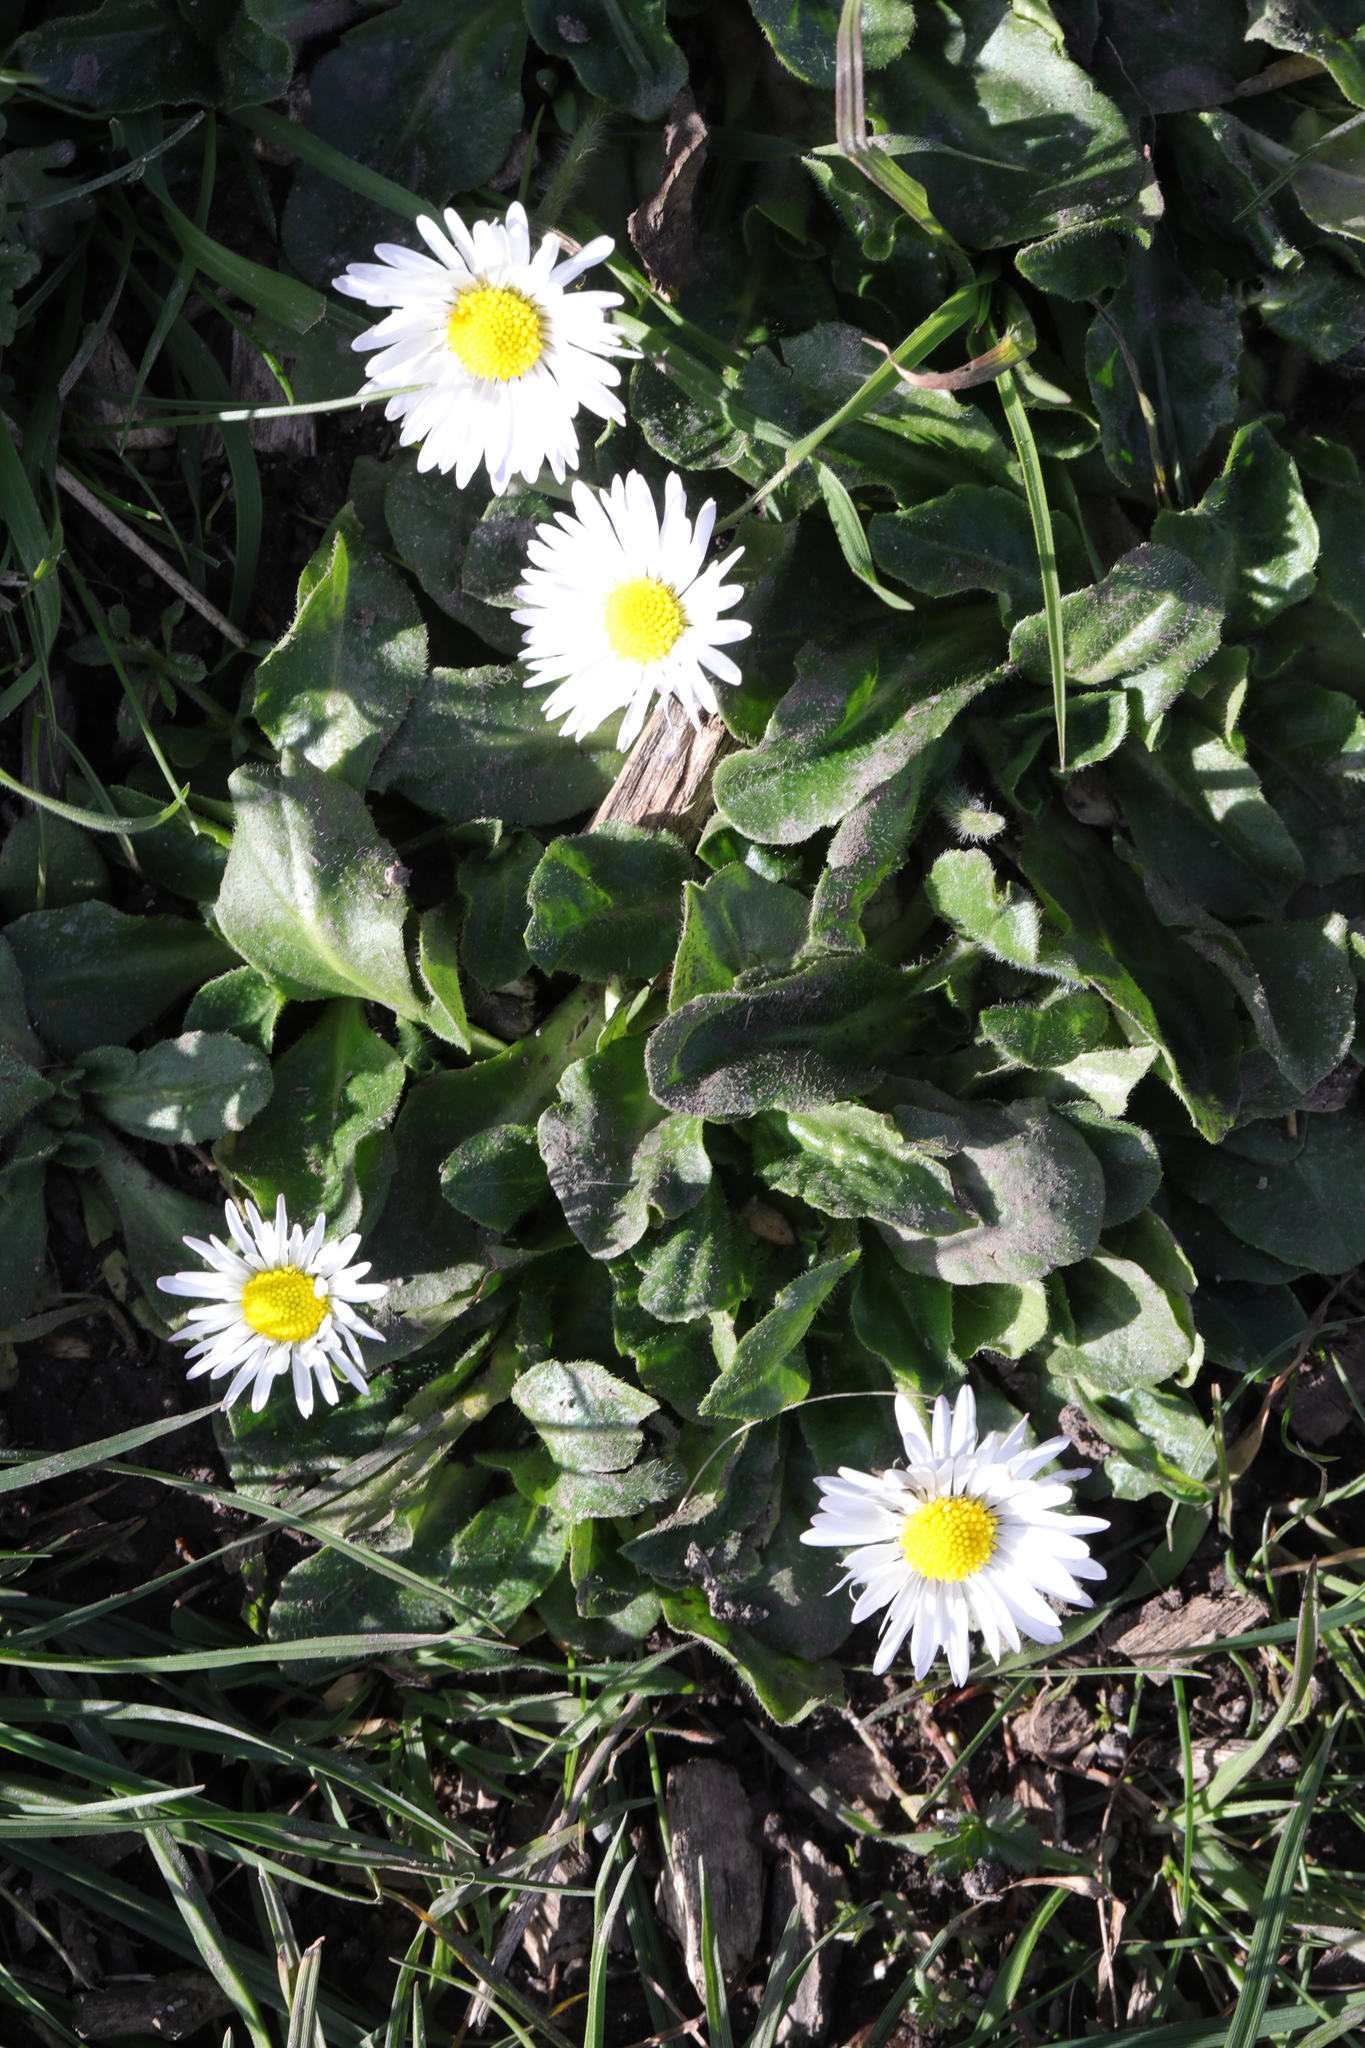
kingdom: Plantae
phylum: Tracheophyta
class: Magnoliopsida
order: Asterales
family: Asteraceae
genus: Bellis
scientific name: Bellis perennis
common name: Lawndaisy
